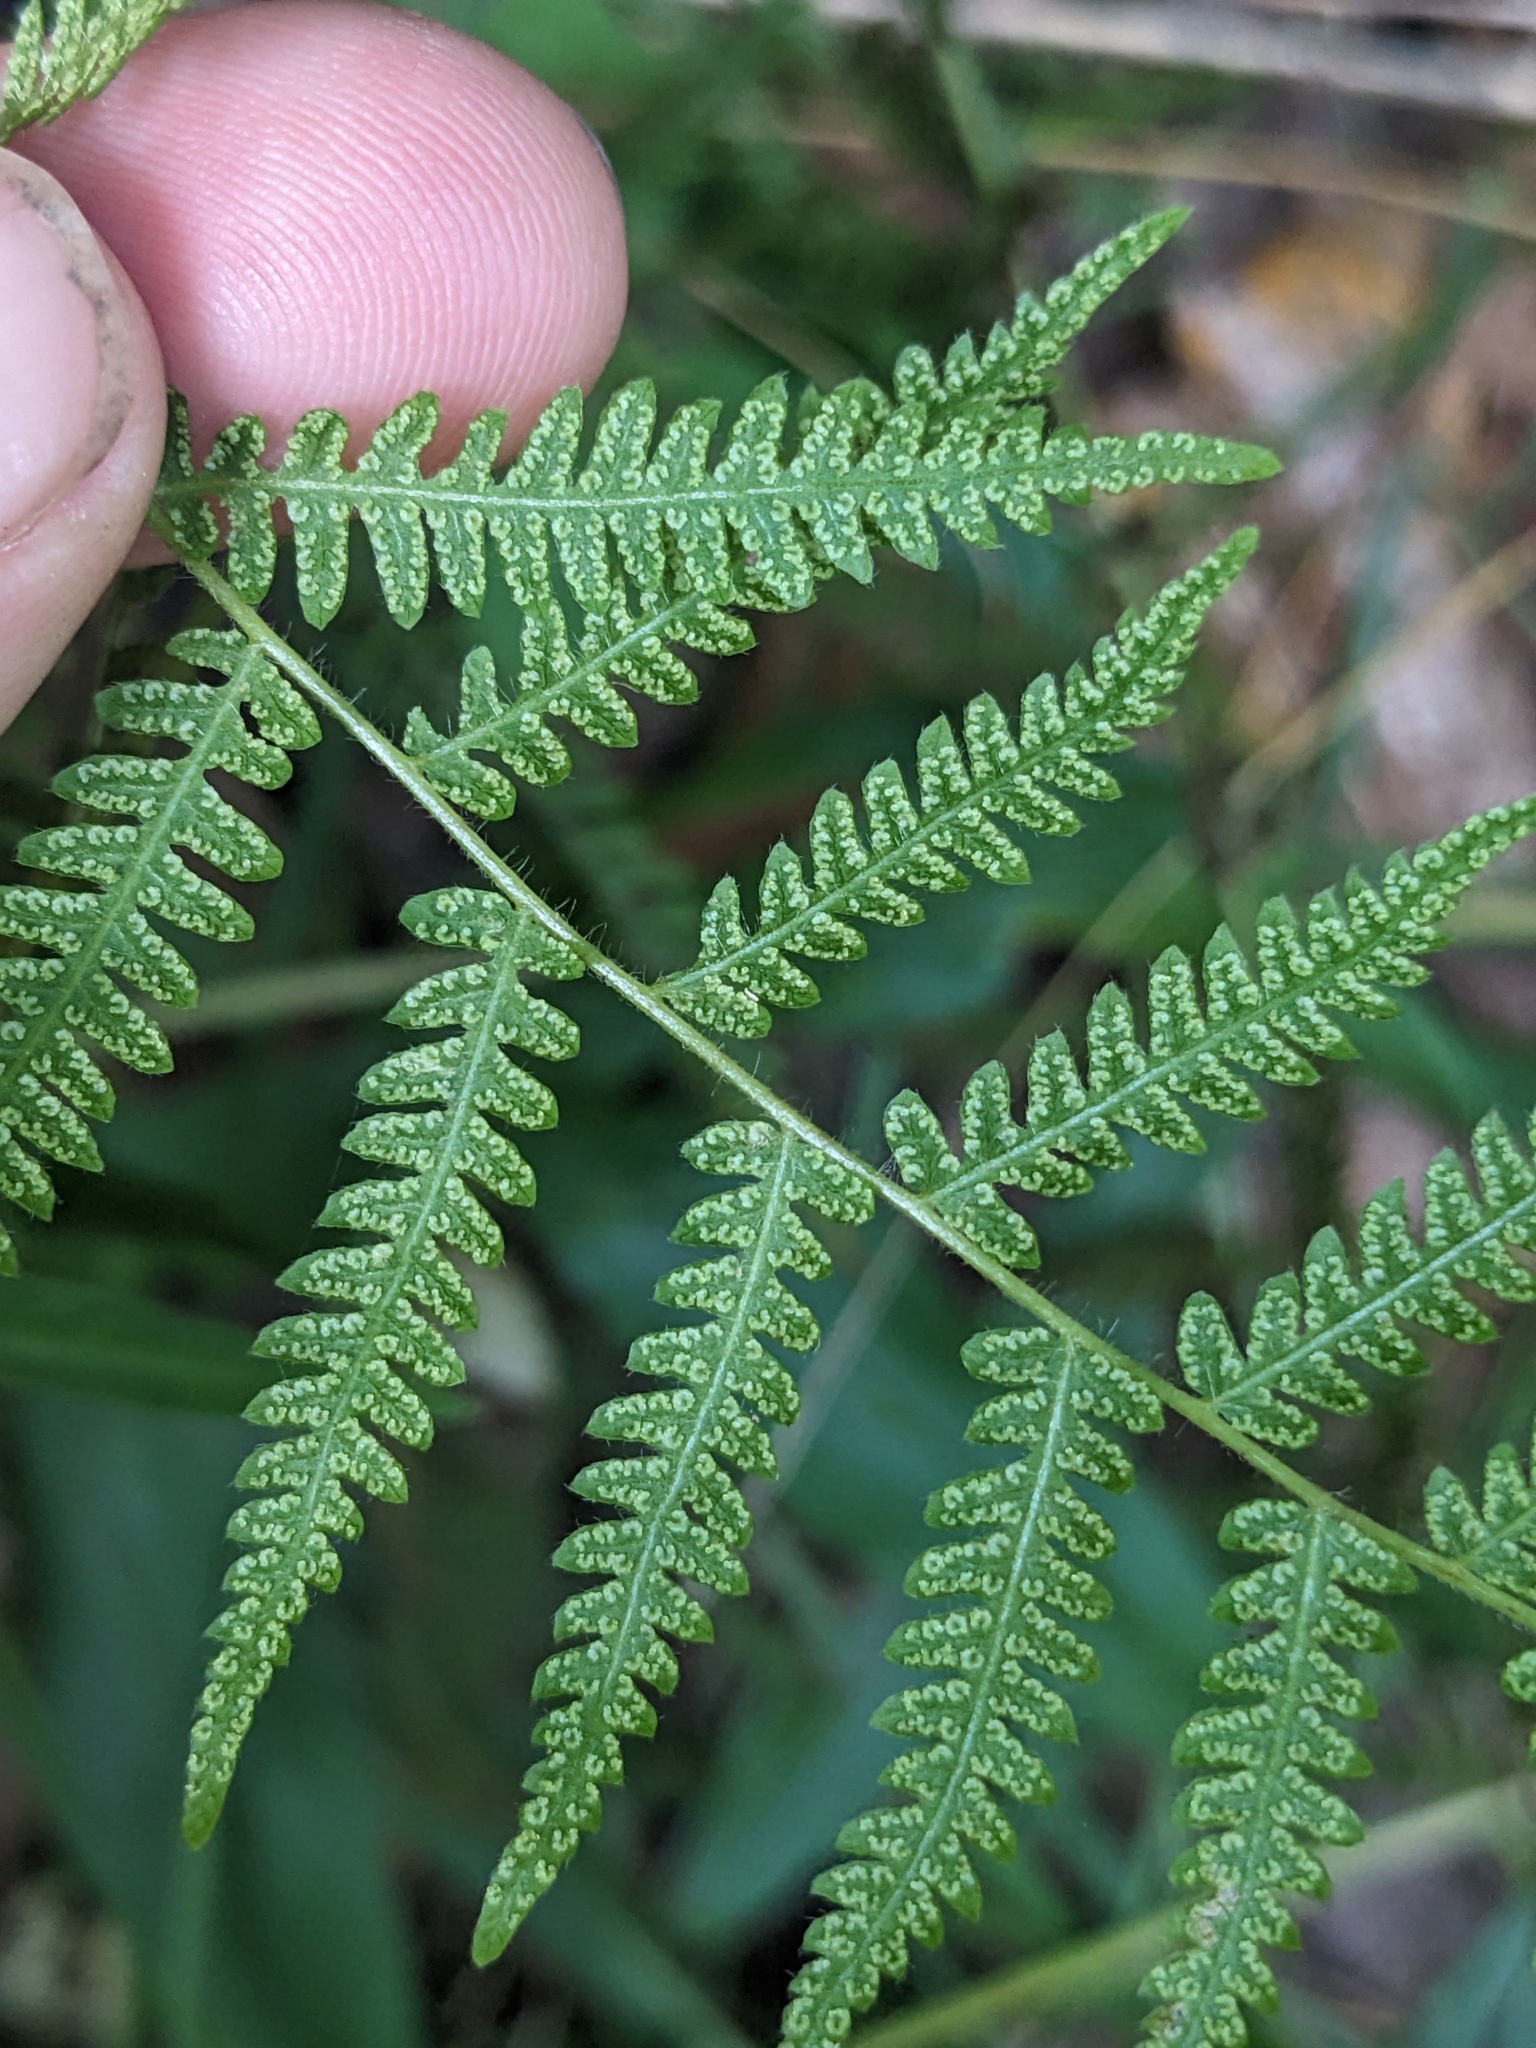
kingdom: Plantae
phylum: Tracheophyta
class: Polypodiopsida
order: Polypodiales
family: Thelypteridaceae
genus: Amauropelta
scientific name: Amauropelta noveboracensis
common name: New york fern
